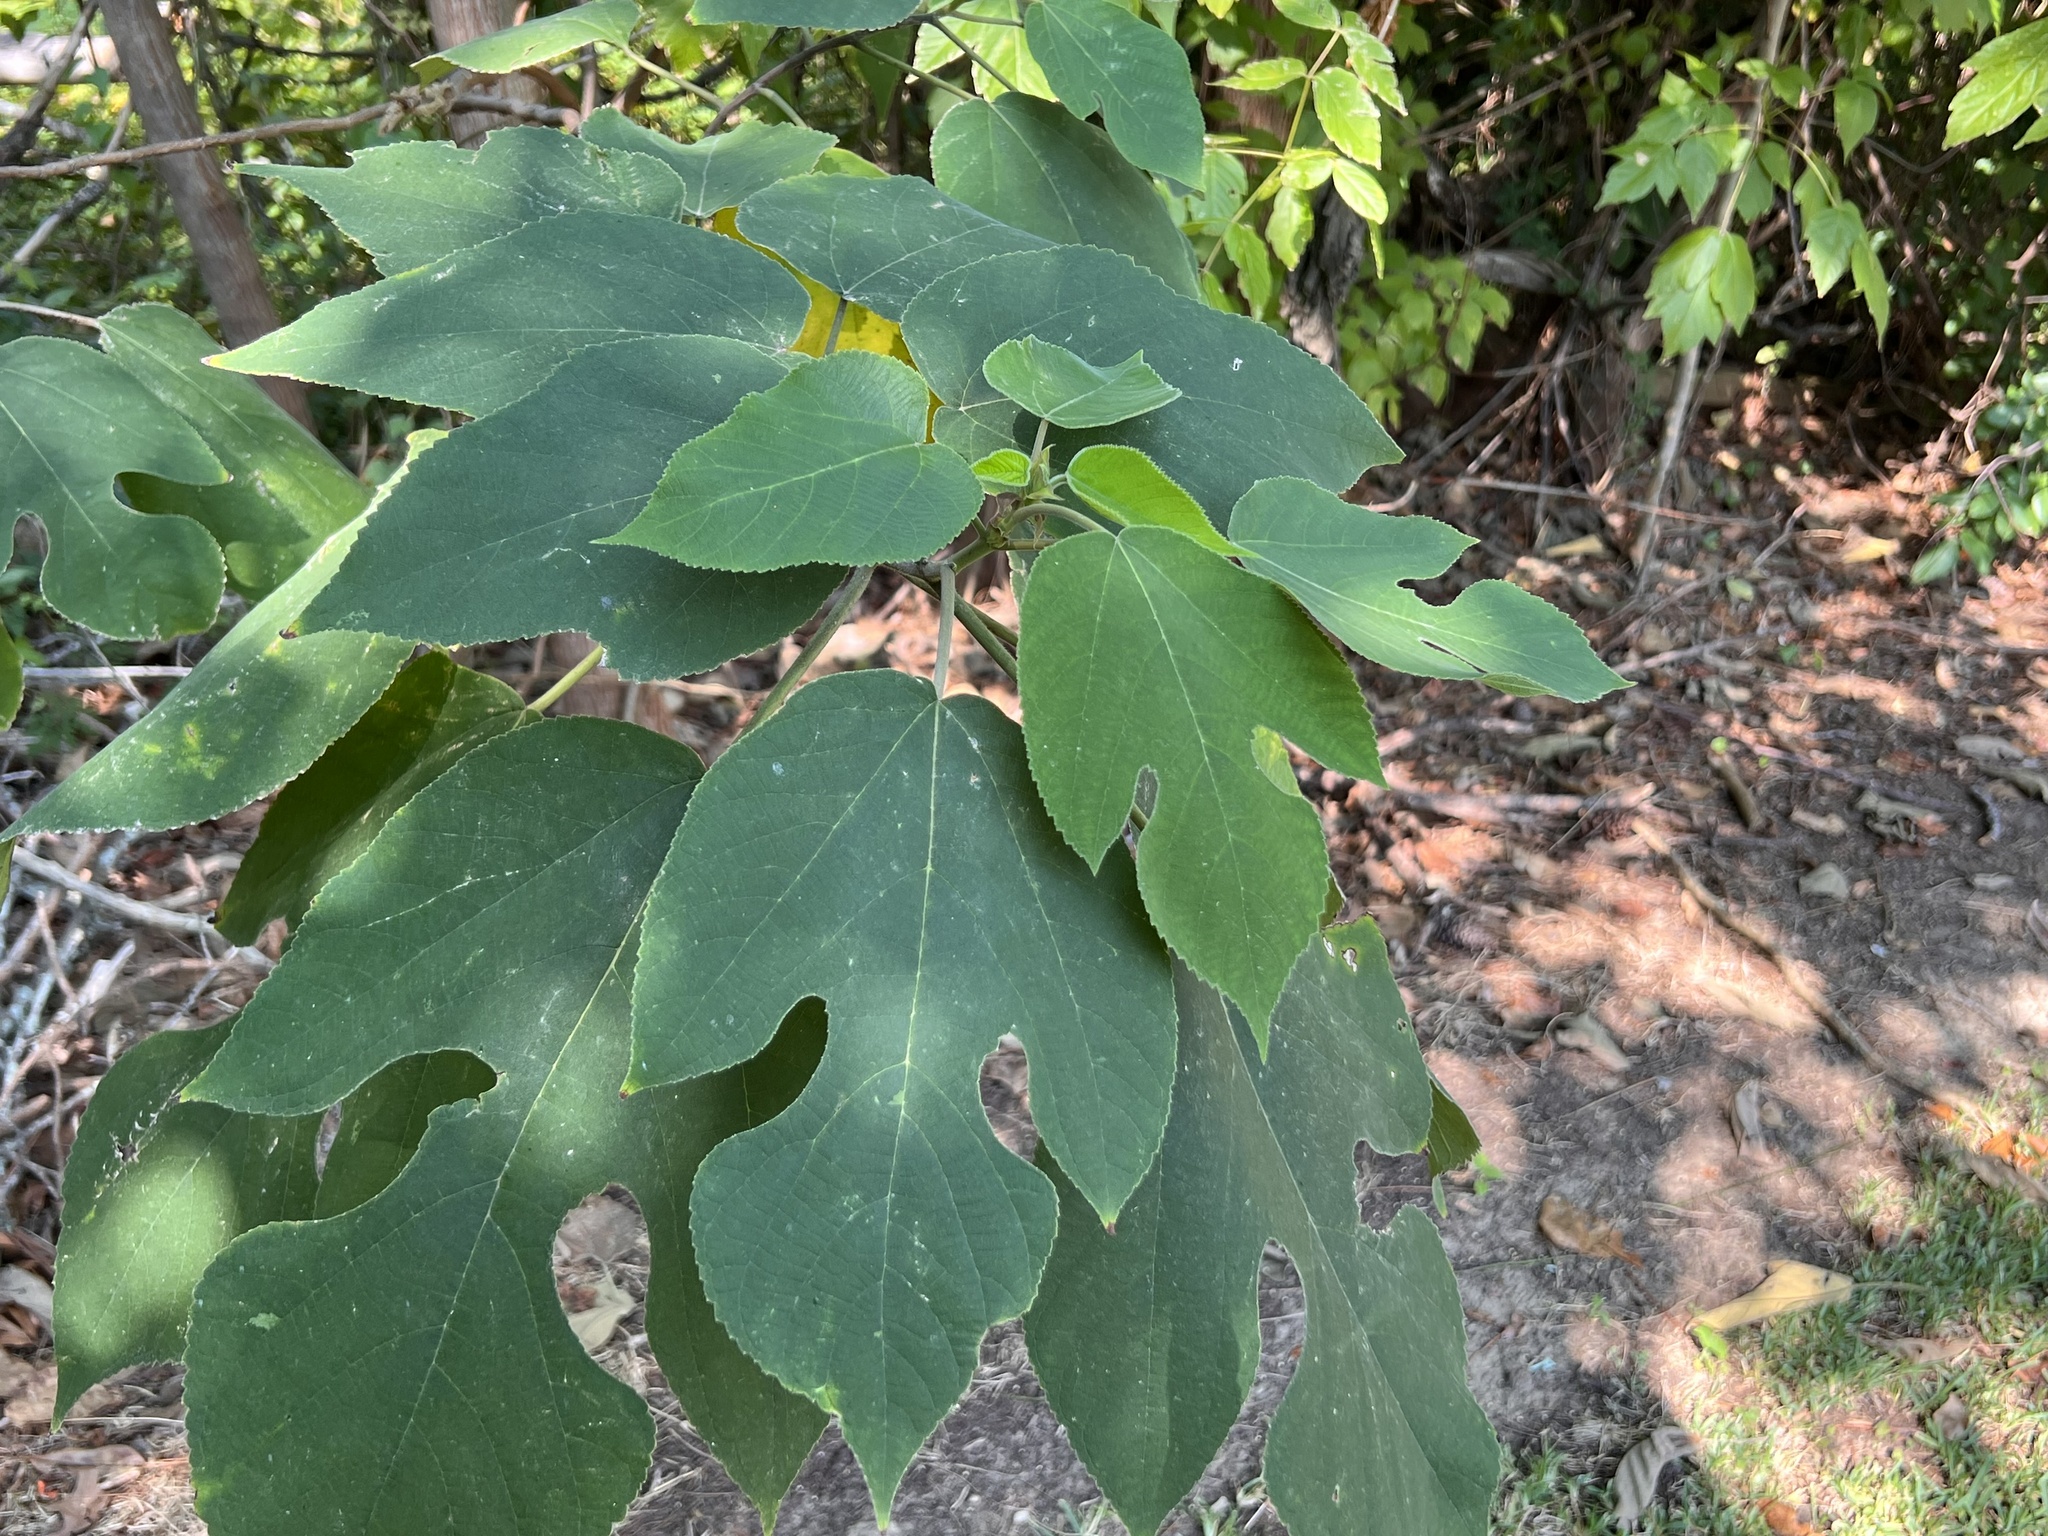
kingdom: Plantae
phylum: Tracheophyta
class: Magnoliopsida
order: Rosales
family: Moraceae
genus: Broussonetia
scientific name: Broussonetia papyrifera
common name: Paper mulberry
